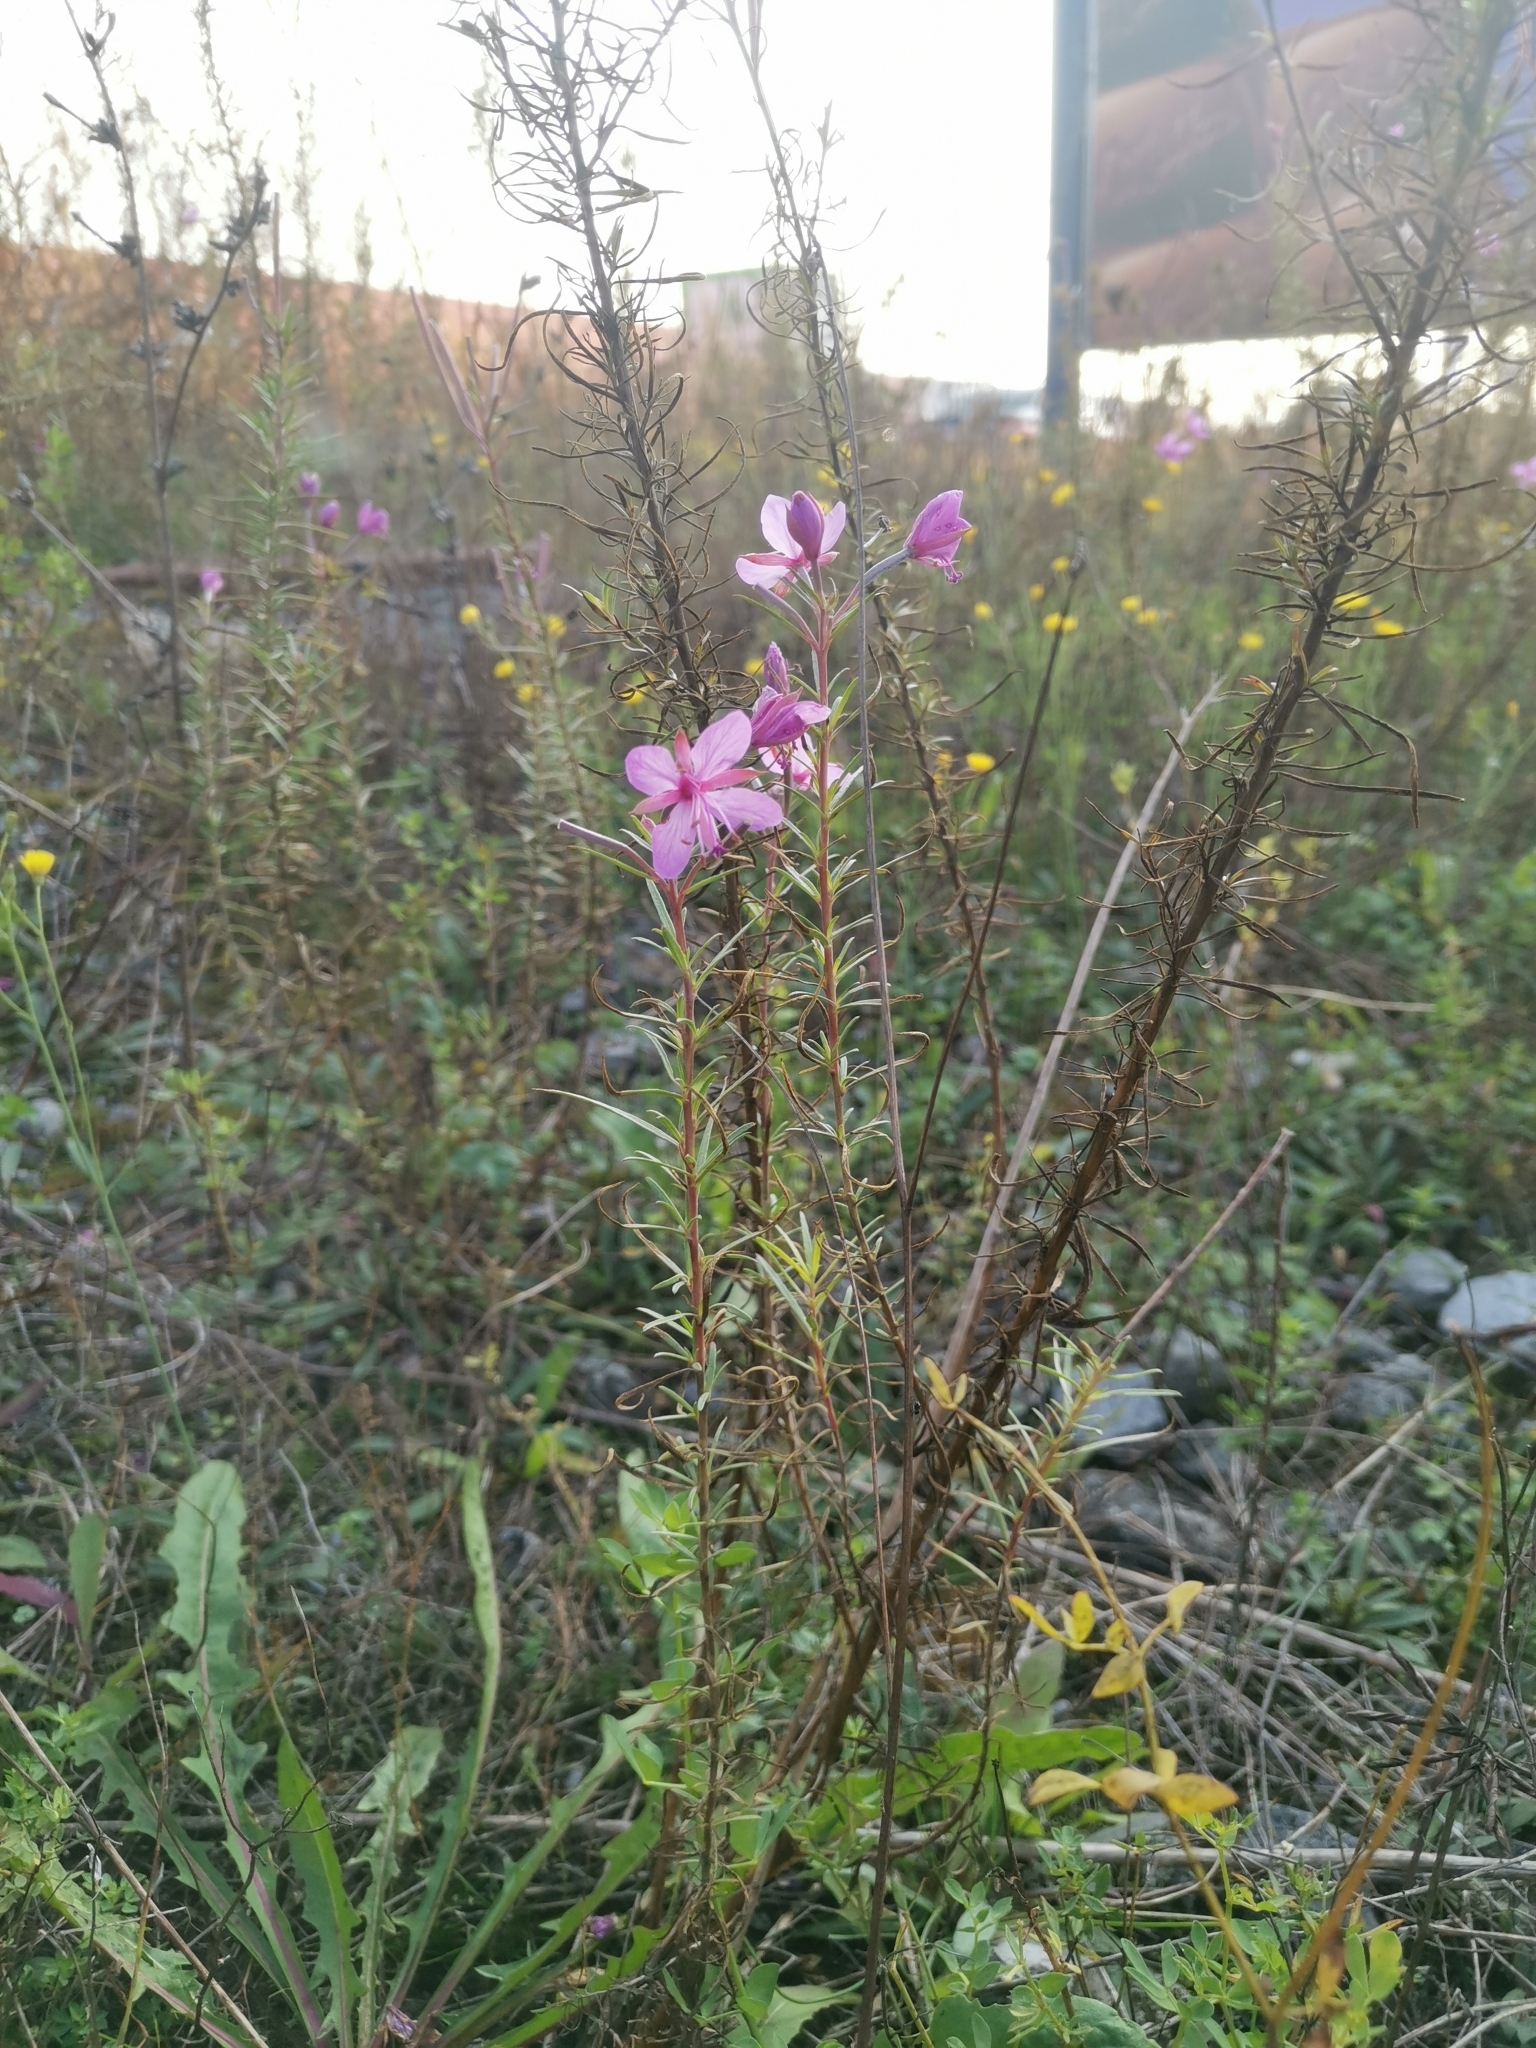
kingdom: Plantae
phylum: Tracheophyta
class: Magnoliopsida
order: Myrtales
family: Onagraceae
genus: Chamaenerion
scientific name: Chamaenerion dodonaei
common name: Rosemary-leaved willowherb
